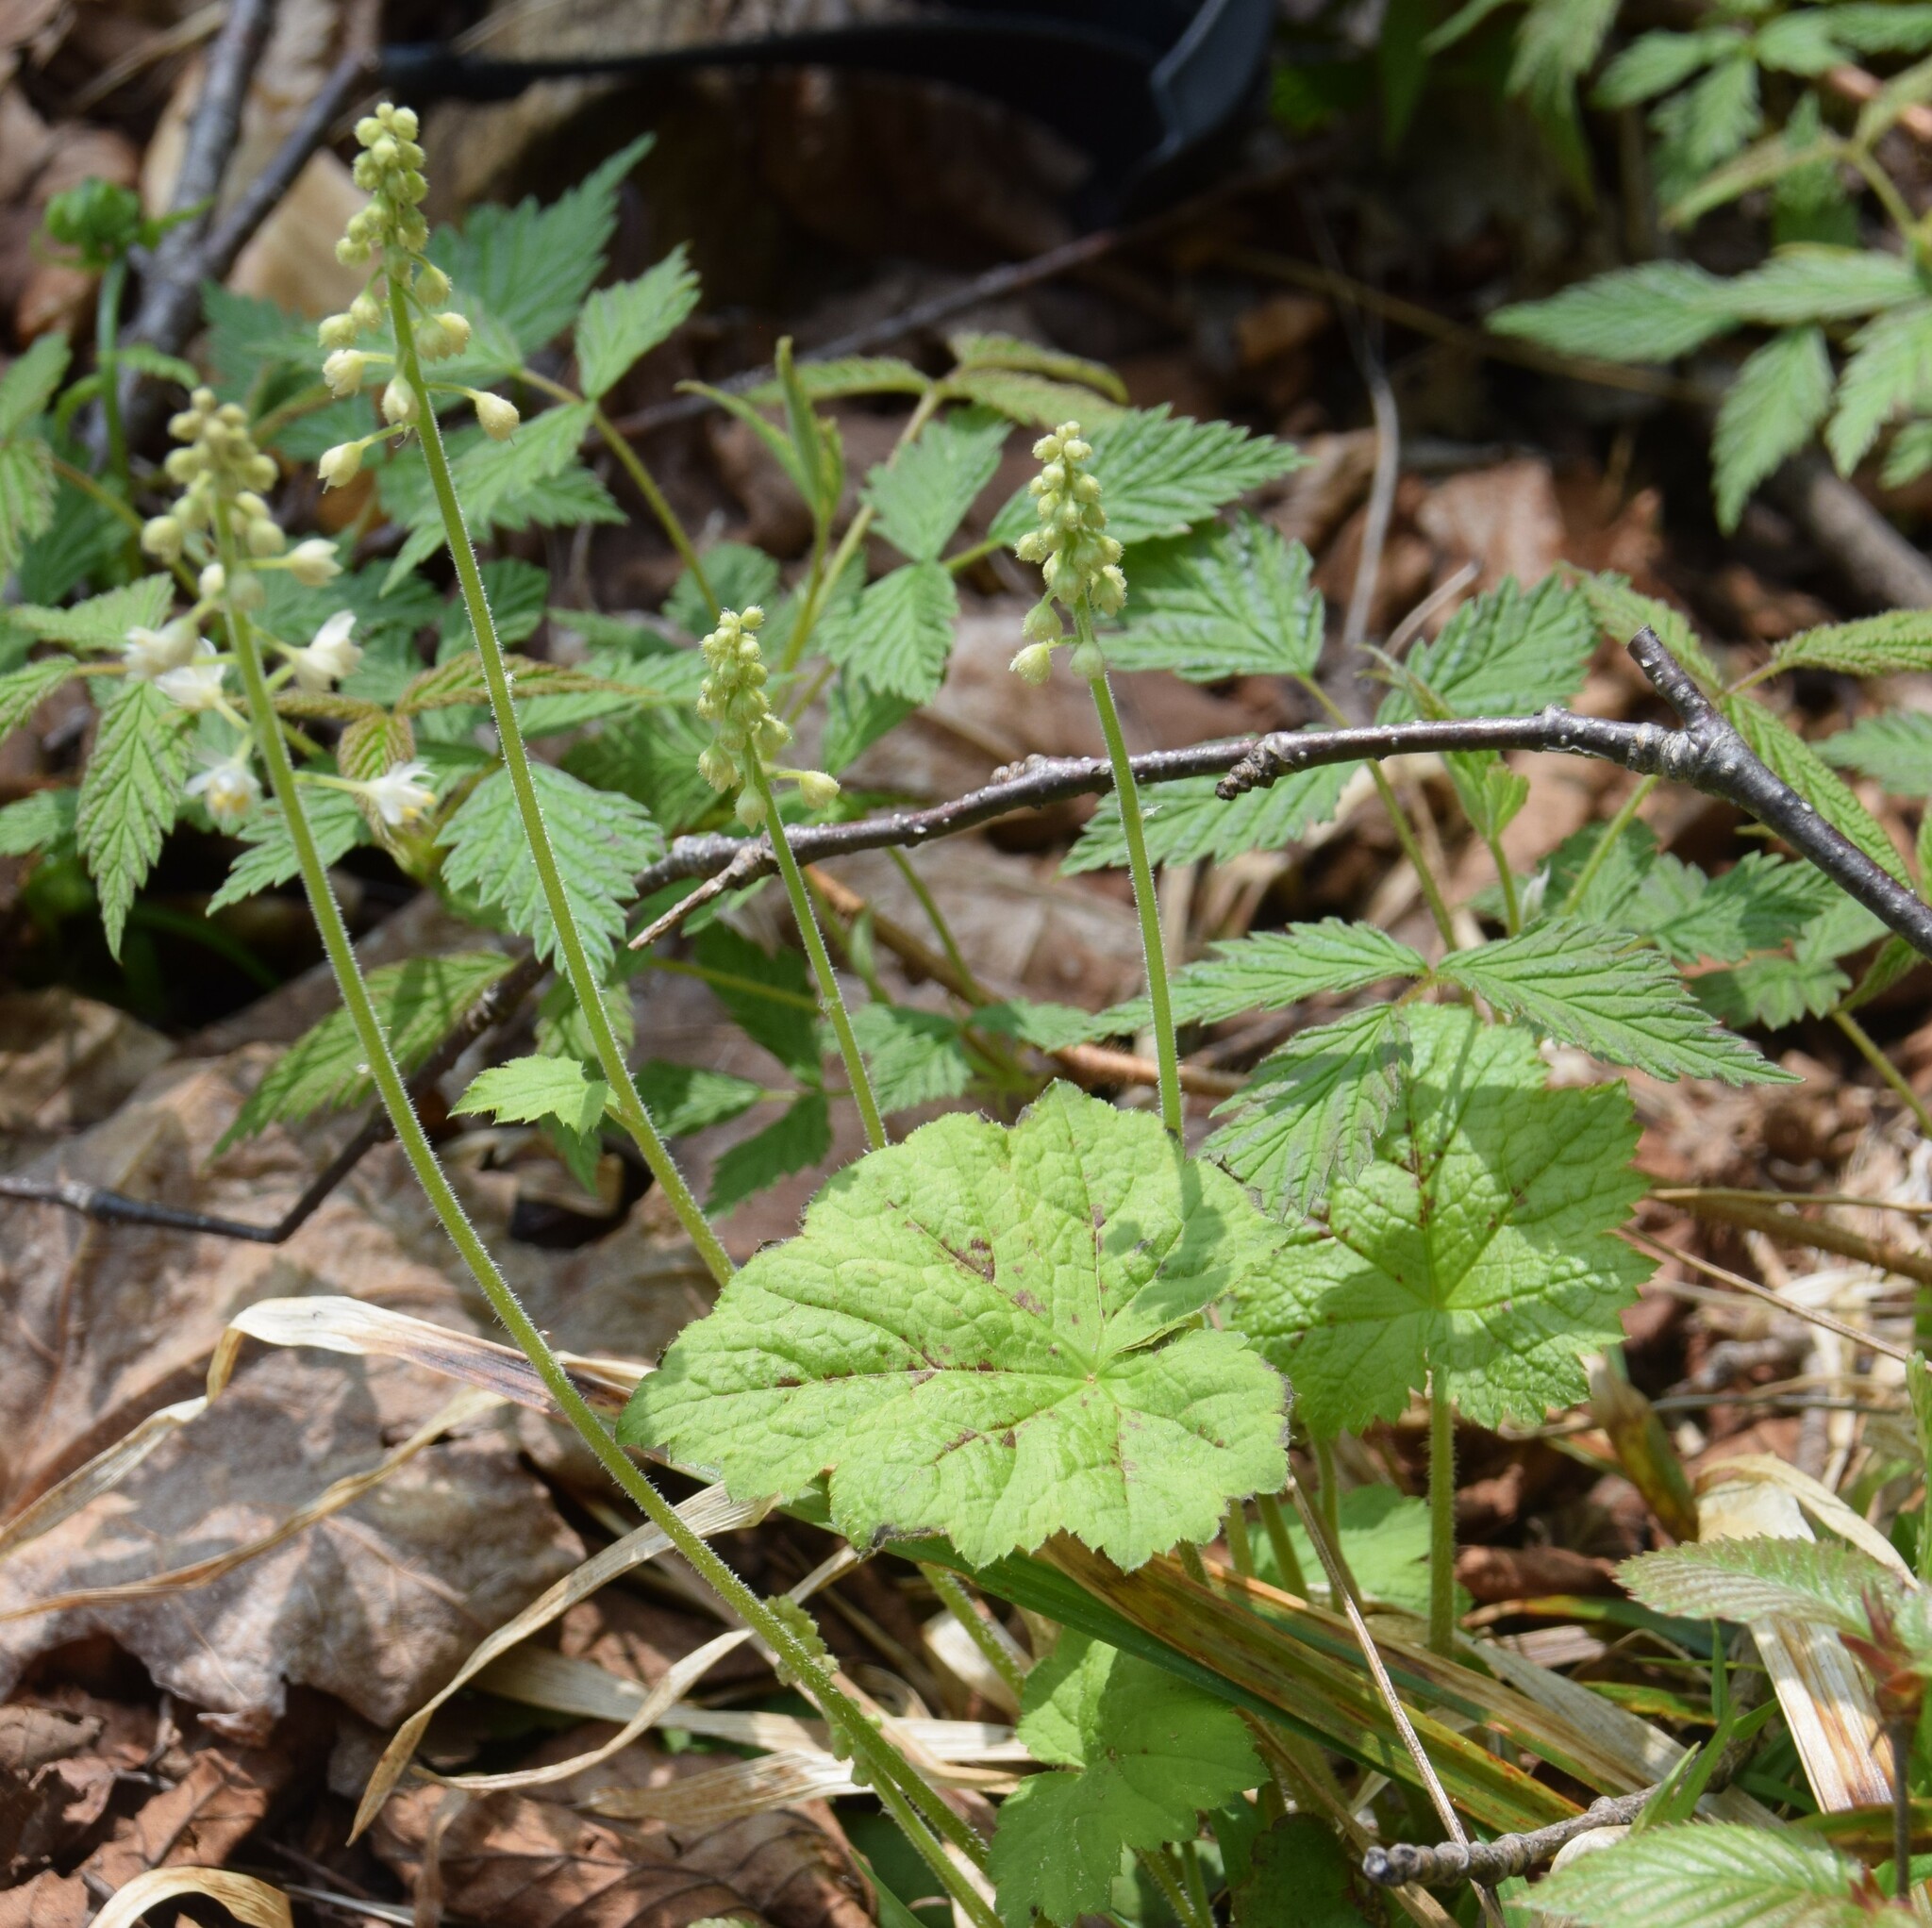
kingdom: Plantae
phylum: Tracheophyta
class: Magnoliopsida
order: Saxifragales
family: Saxifragaceae
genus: Tiarella
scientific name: Tiarella stolonifera
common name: Stoloniferous foamflower
